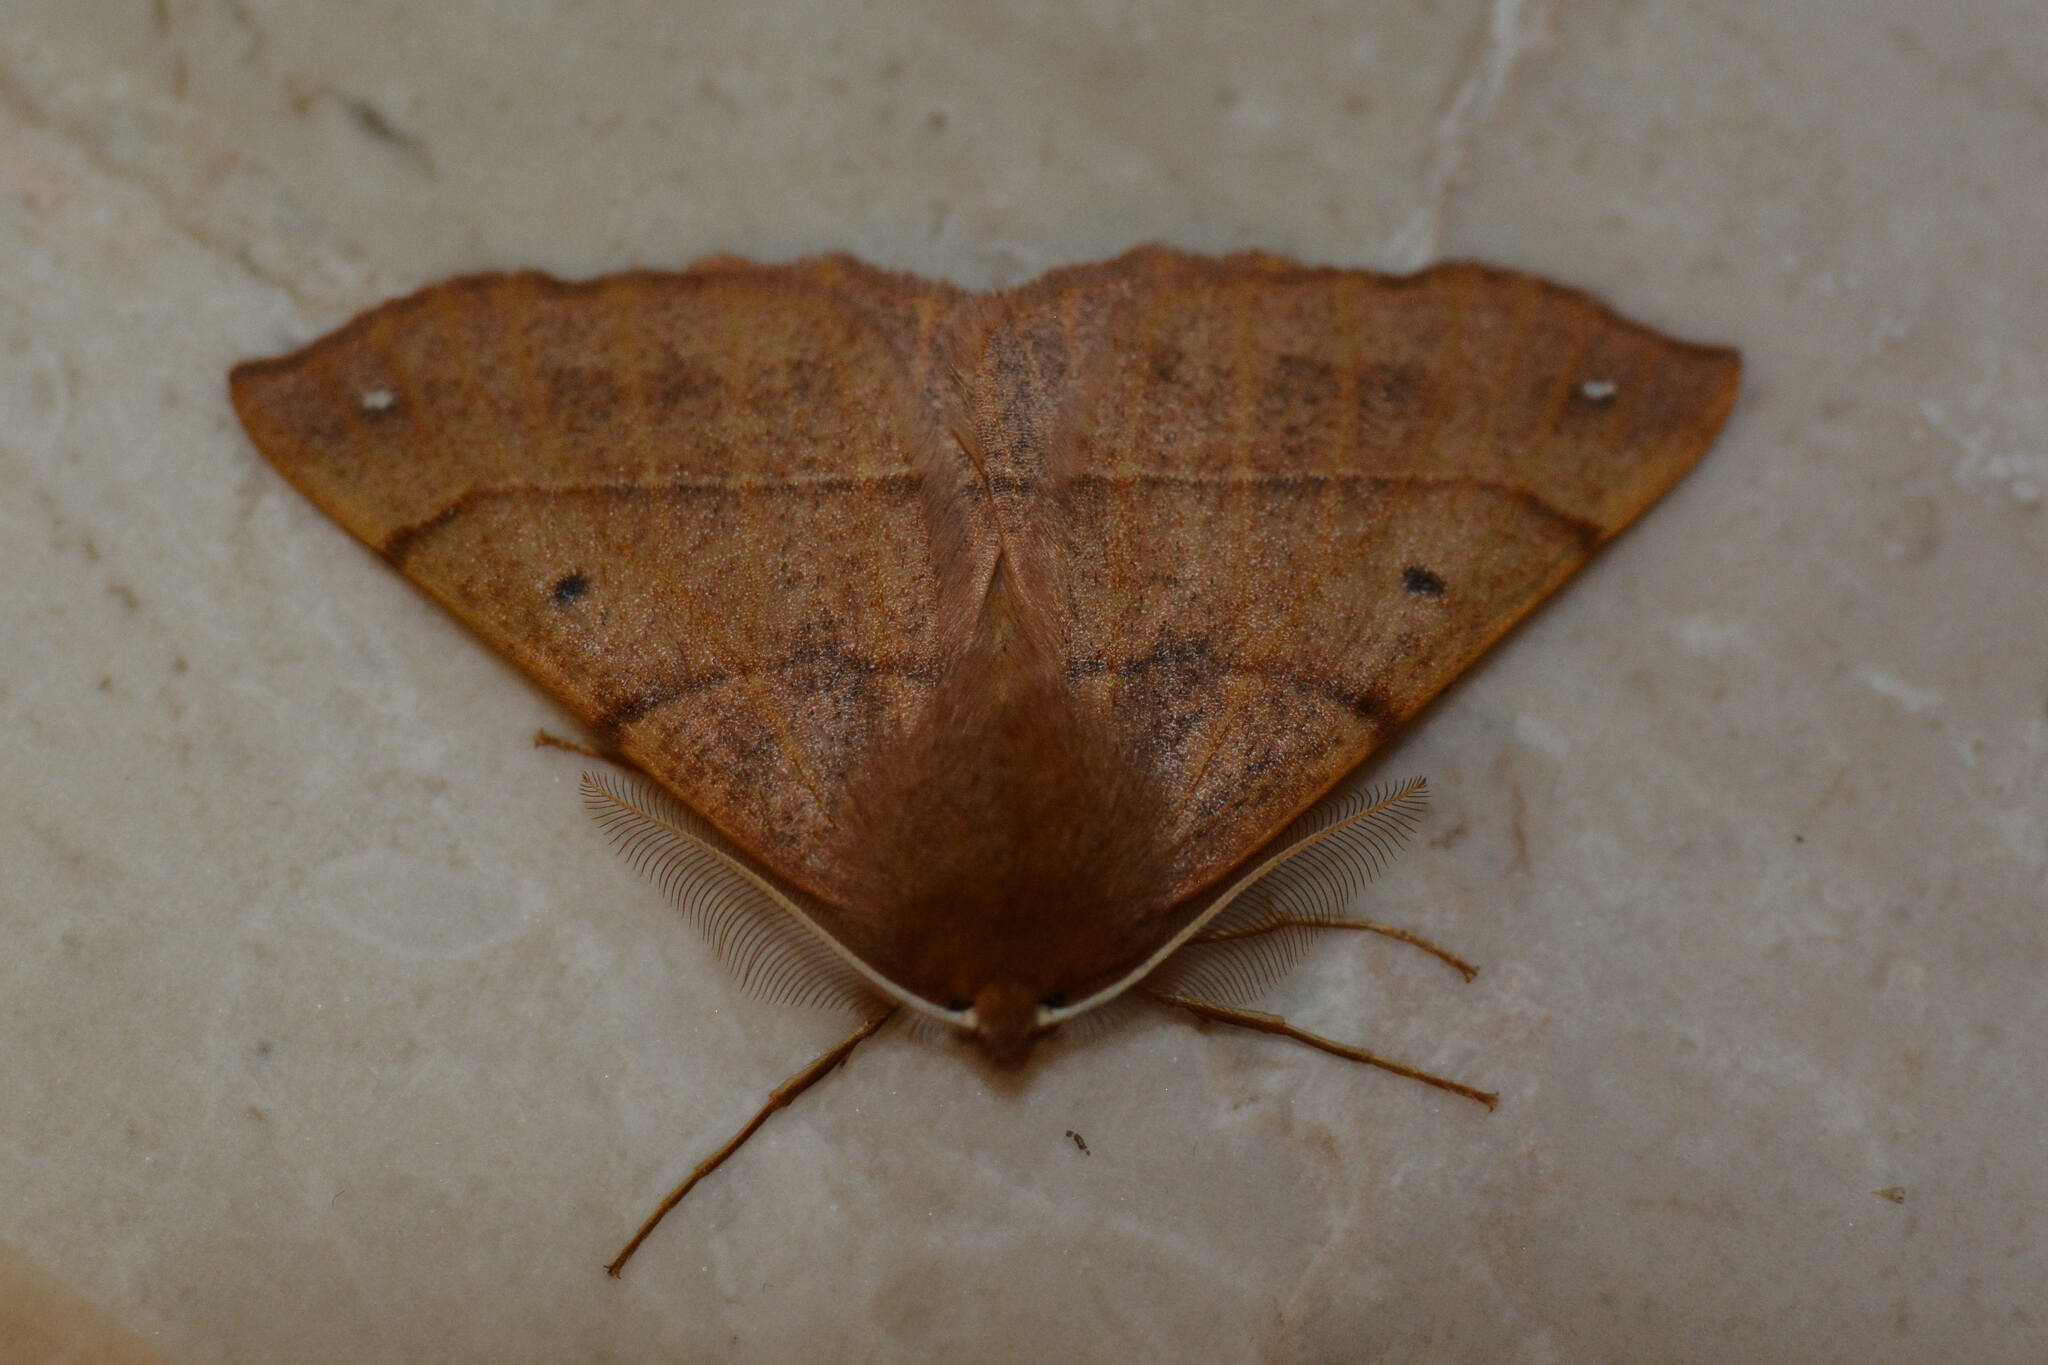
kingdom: Animalia
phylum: Arthropoda
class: Insecta
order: Lepidoptera
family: Geometridae
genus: Colotois
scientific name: Colotois pennaria
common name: Feathered thorn
